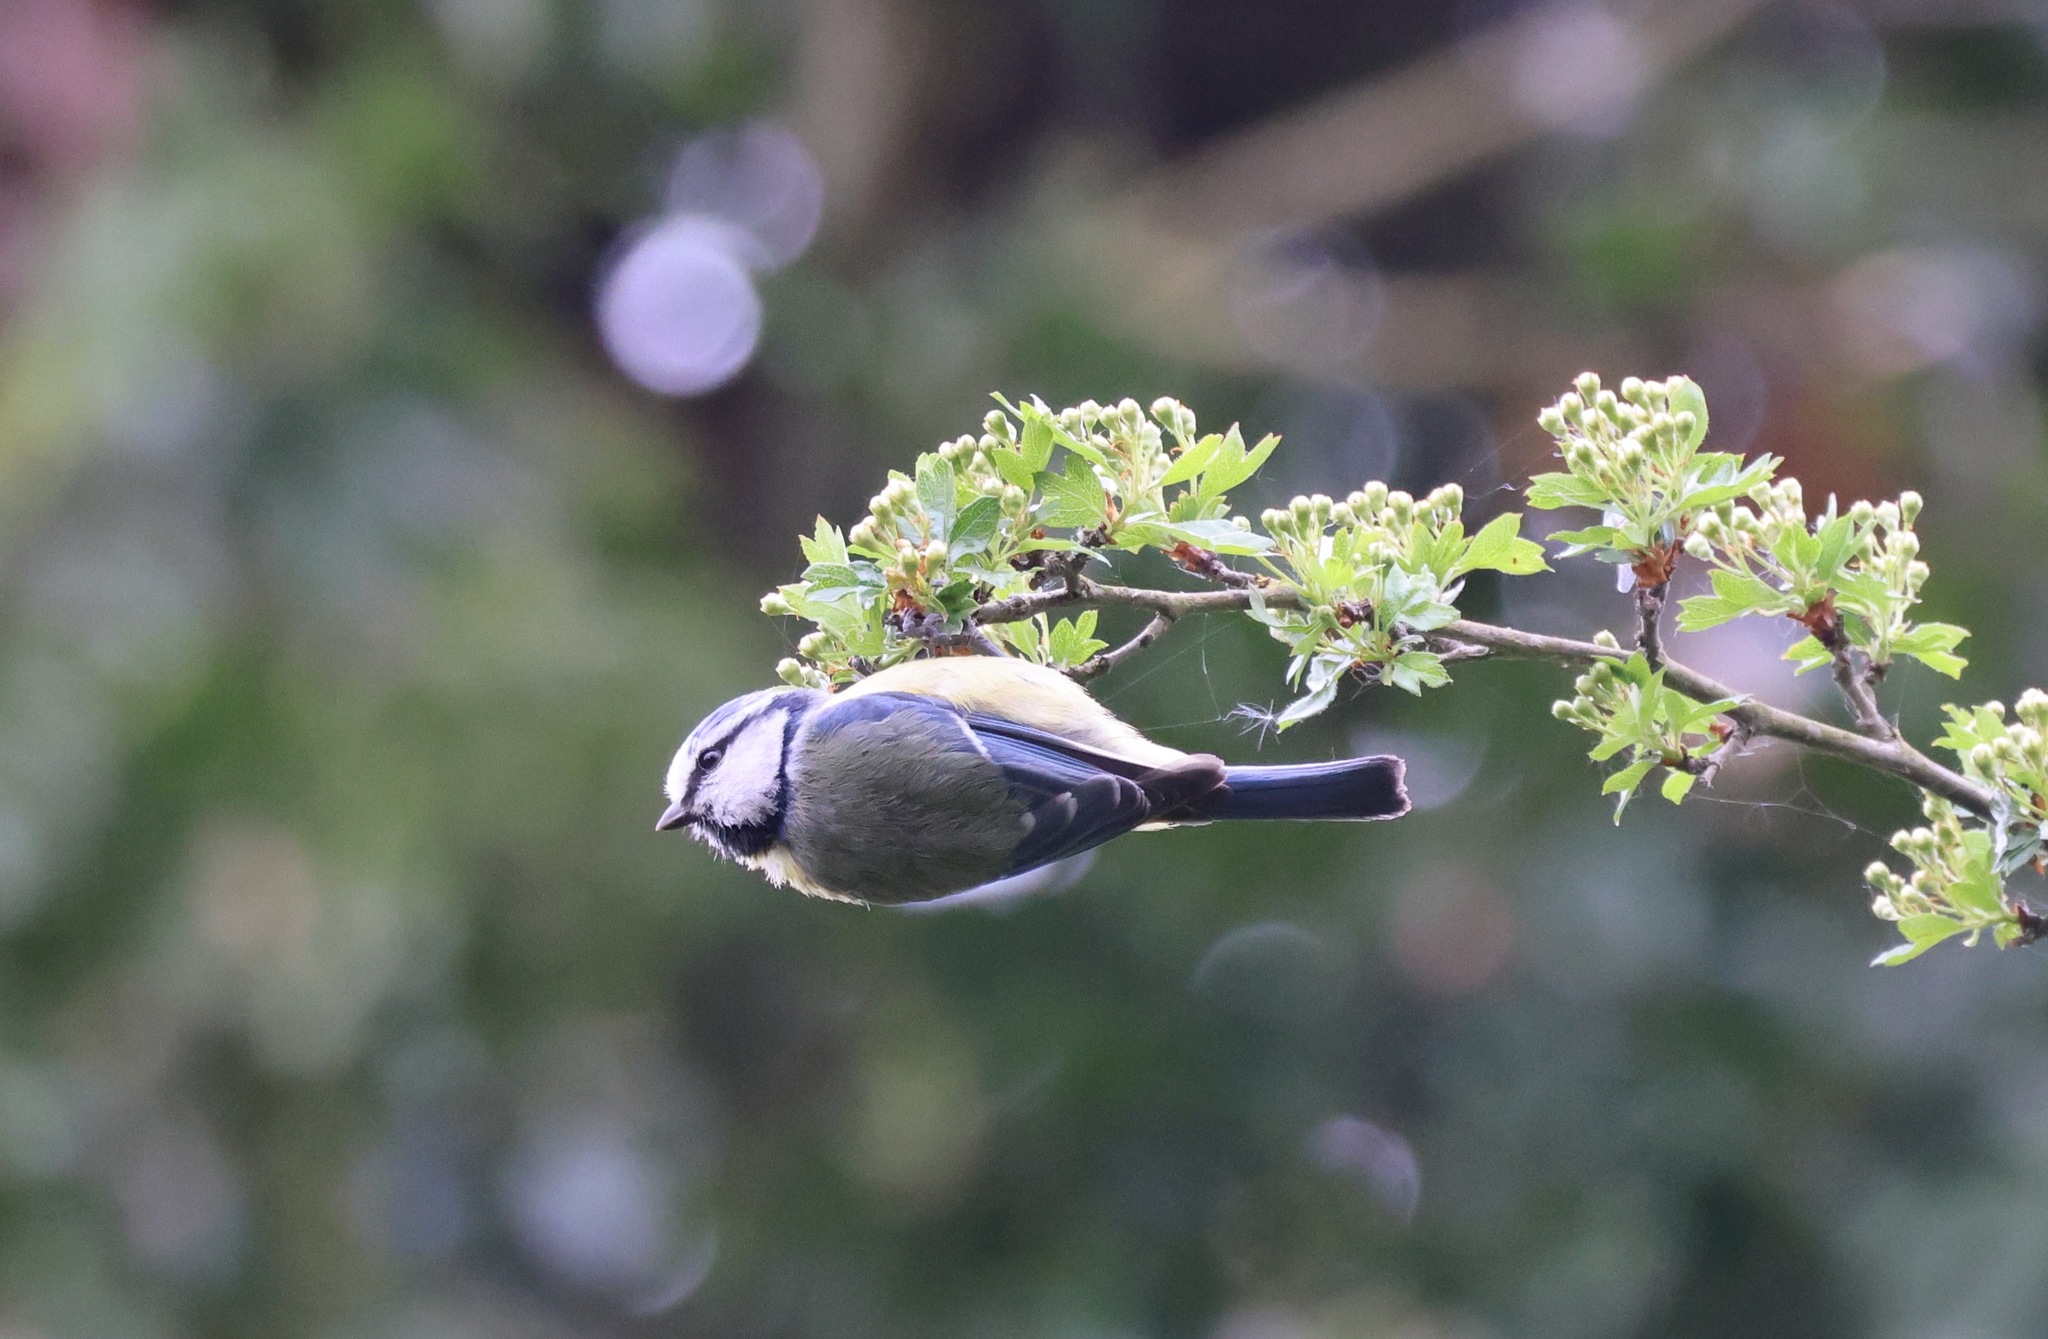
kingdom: Animalia
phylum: Chordata
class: Aves
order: Passeriformes
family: Paridae
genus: Cyanistes
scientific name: Cyanistes caeruleus
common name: Eurasian blue tit
